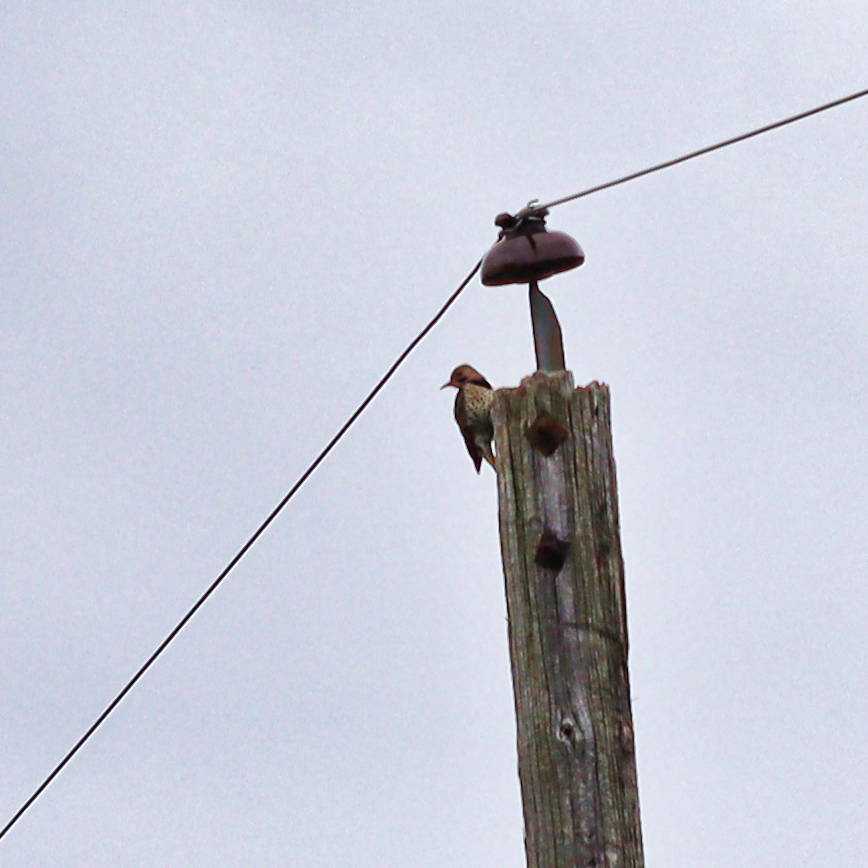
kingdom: Animalia
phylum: Chordata
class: Aves
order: Piciformes
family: Picidae
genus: Colaptes
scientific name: Colaptes auratus
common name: Northern flicker
